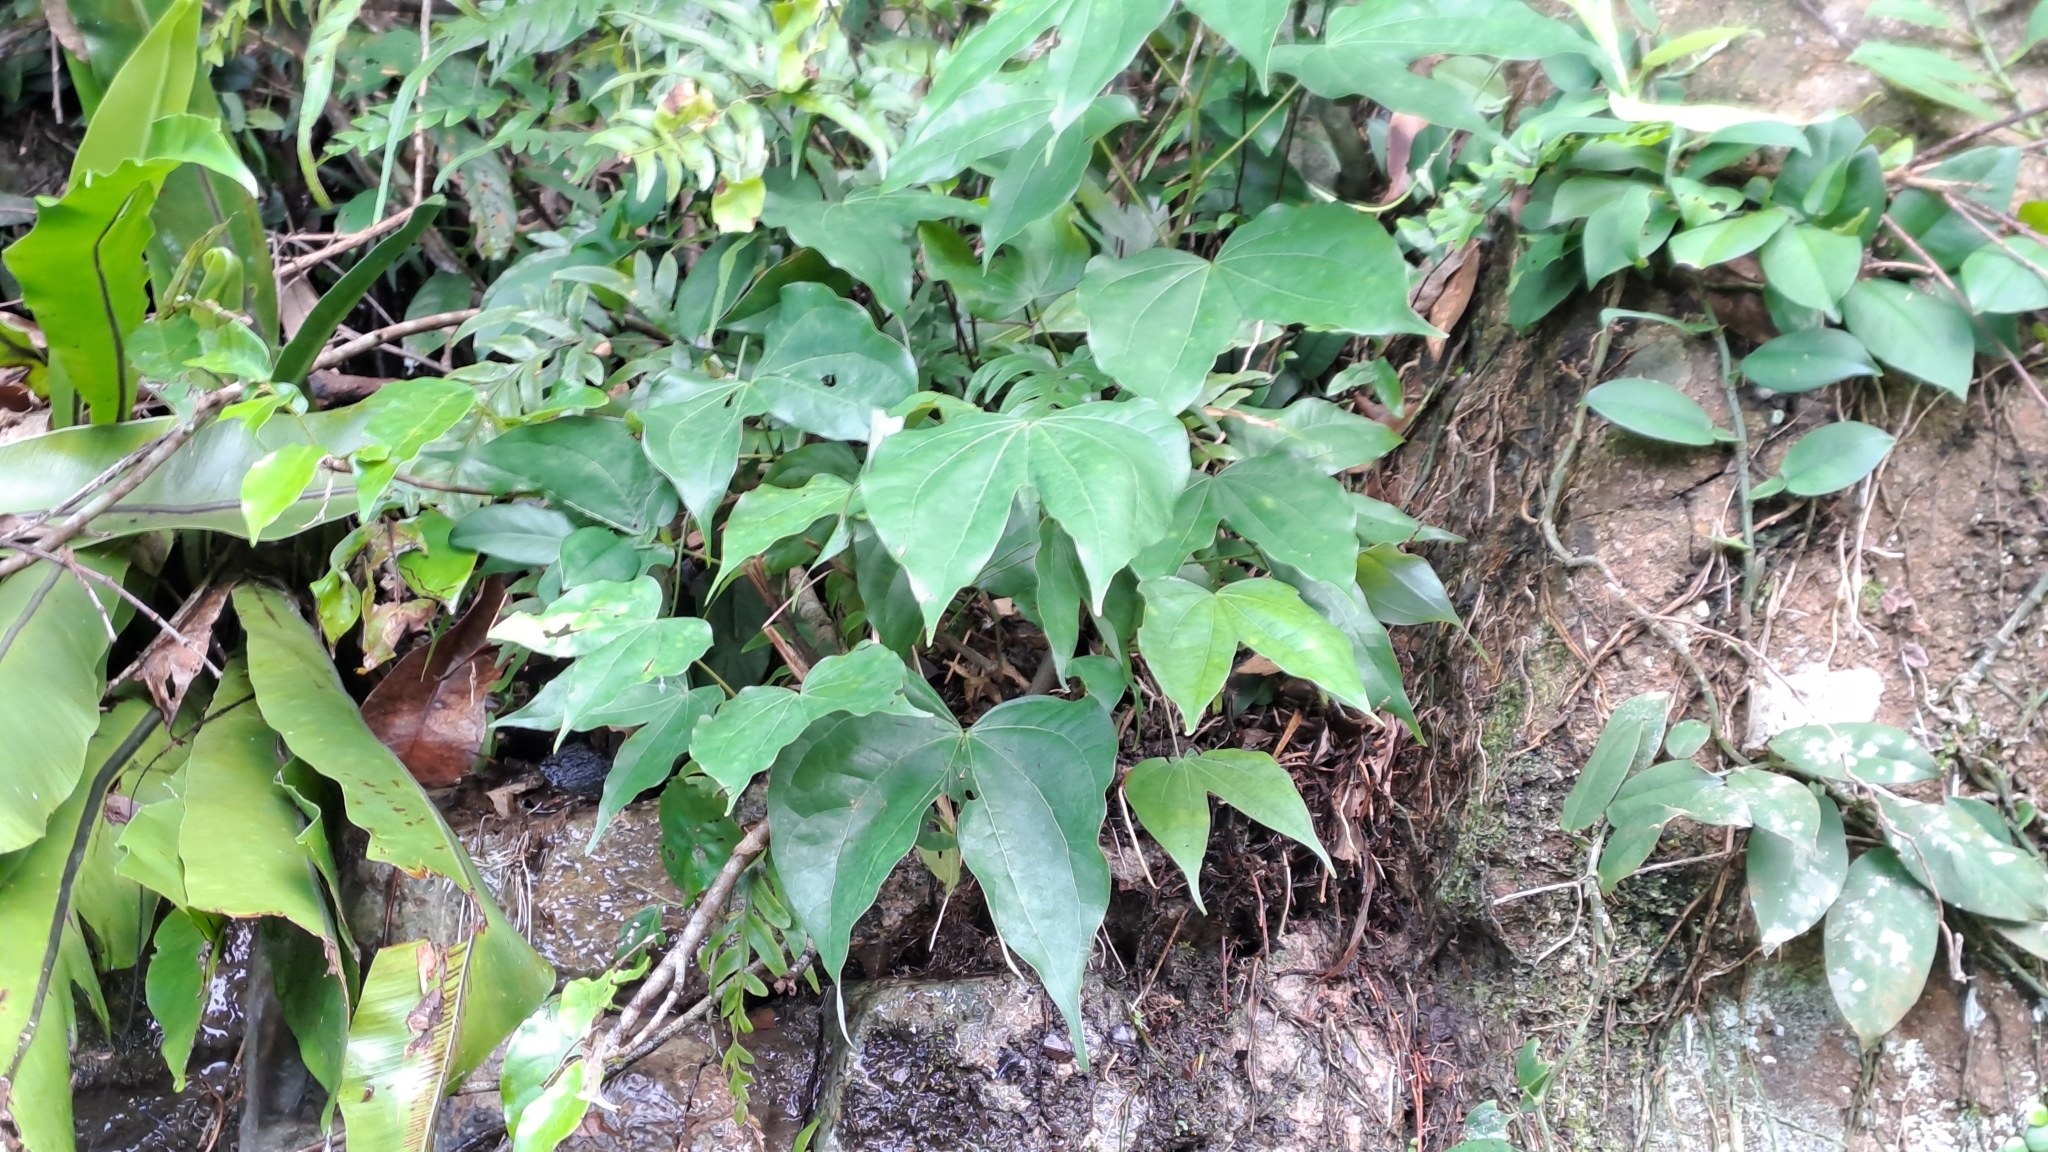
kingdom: Plantae
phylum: Tracheophyta
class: Magnoliopsida
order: Fabales
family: Fabaceae
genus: Phanera
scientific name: Phanera championii
